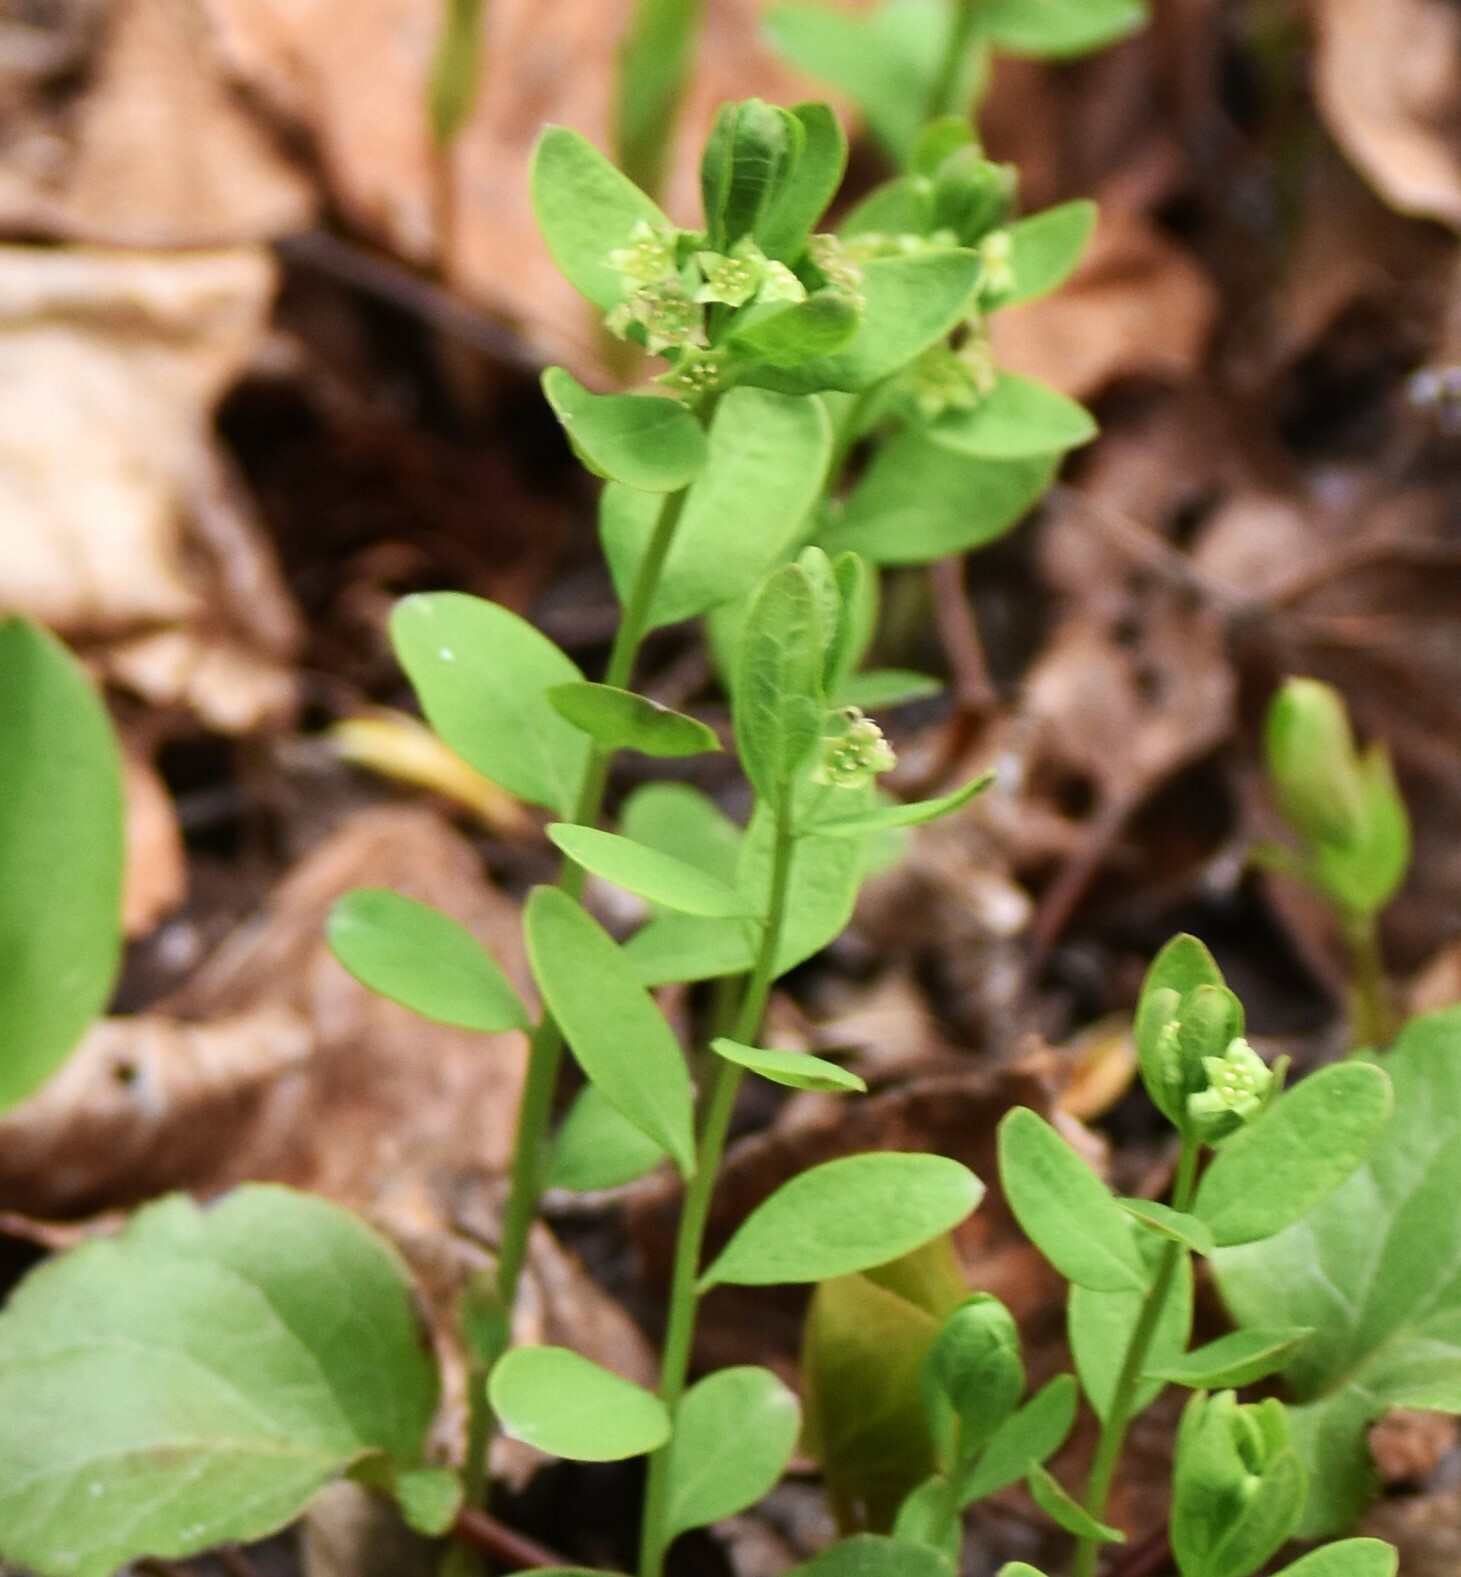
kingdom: Plantae
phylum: Tracheophyta
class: Magnoliopsida
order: Santalales
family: Comandraceae
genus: Geocaulon
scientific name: Geocaulon lividum
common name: Earthberry
